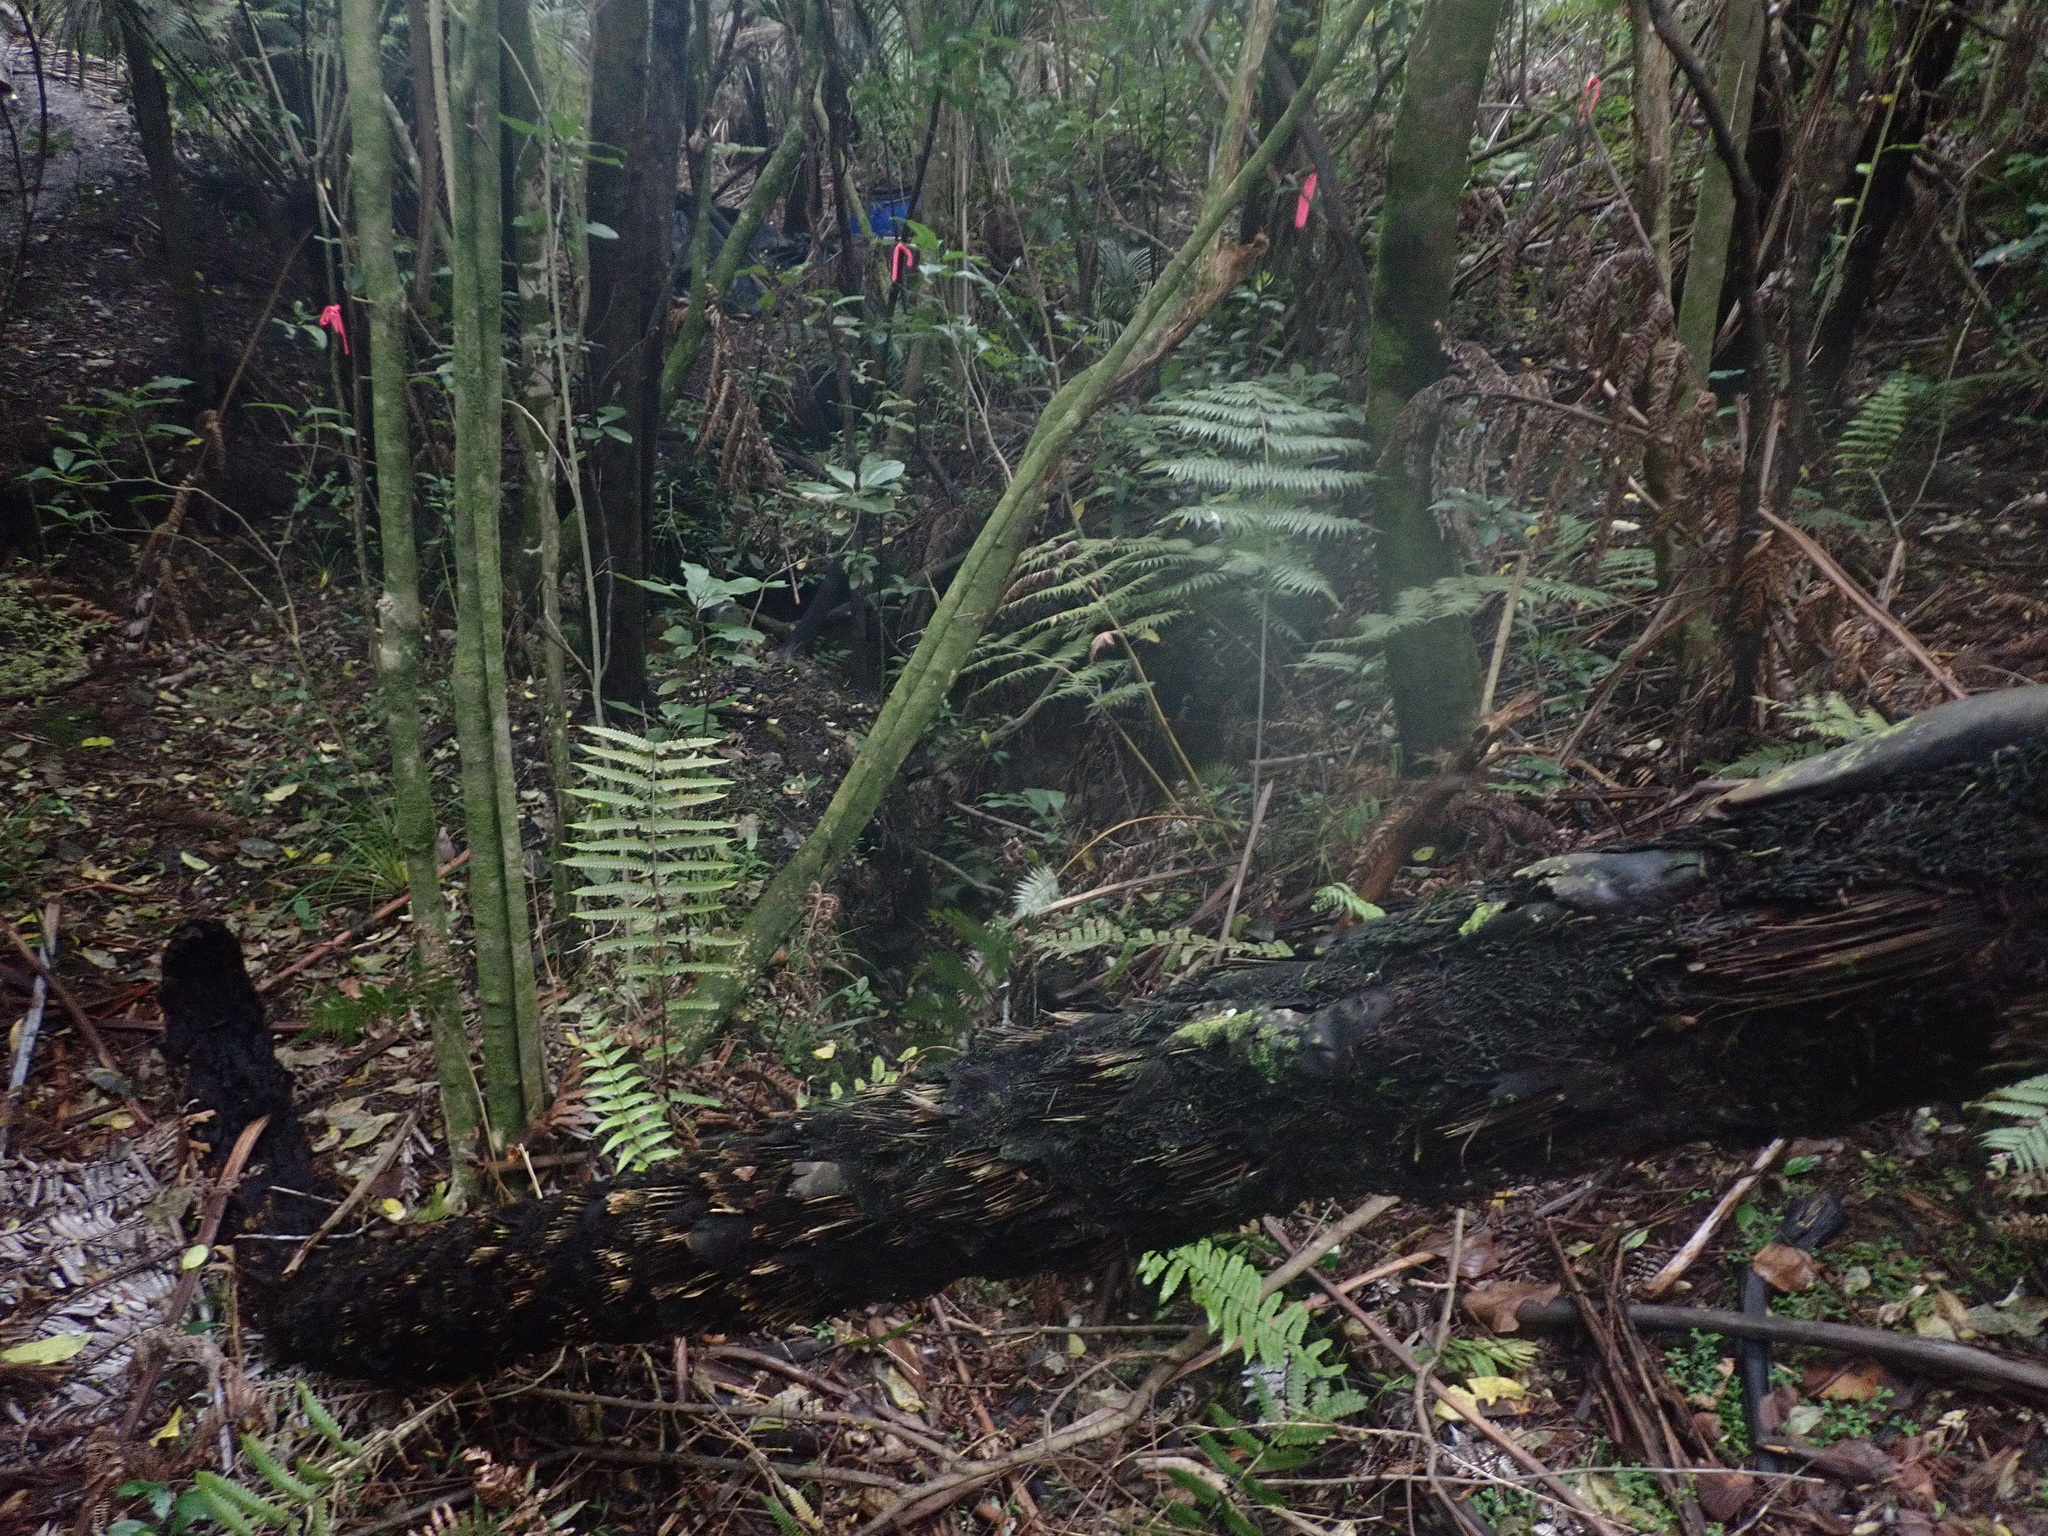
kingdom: Plantae
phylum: Tracheophyta
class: Polypodiopsida
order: Cyatheales
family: Cyatheaceae
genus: Sphaeropteris
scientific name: Sphaeropteris medullaris
